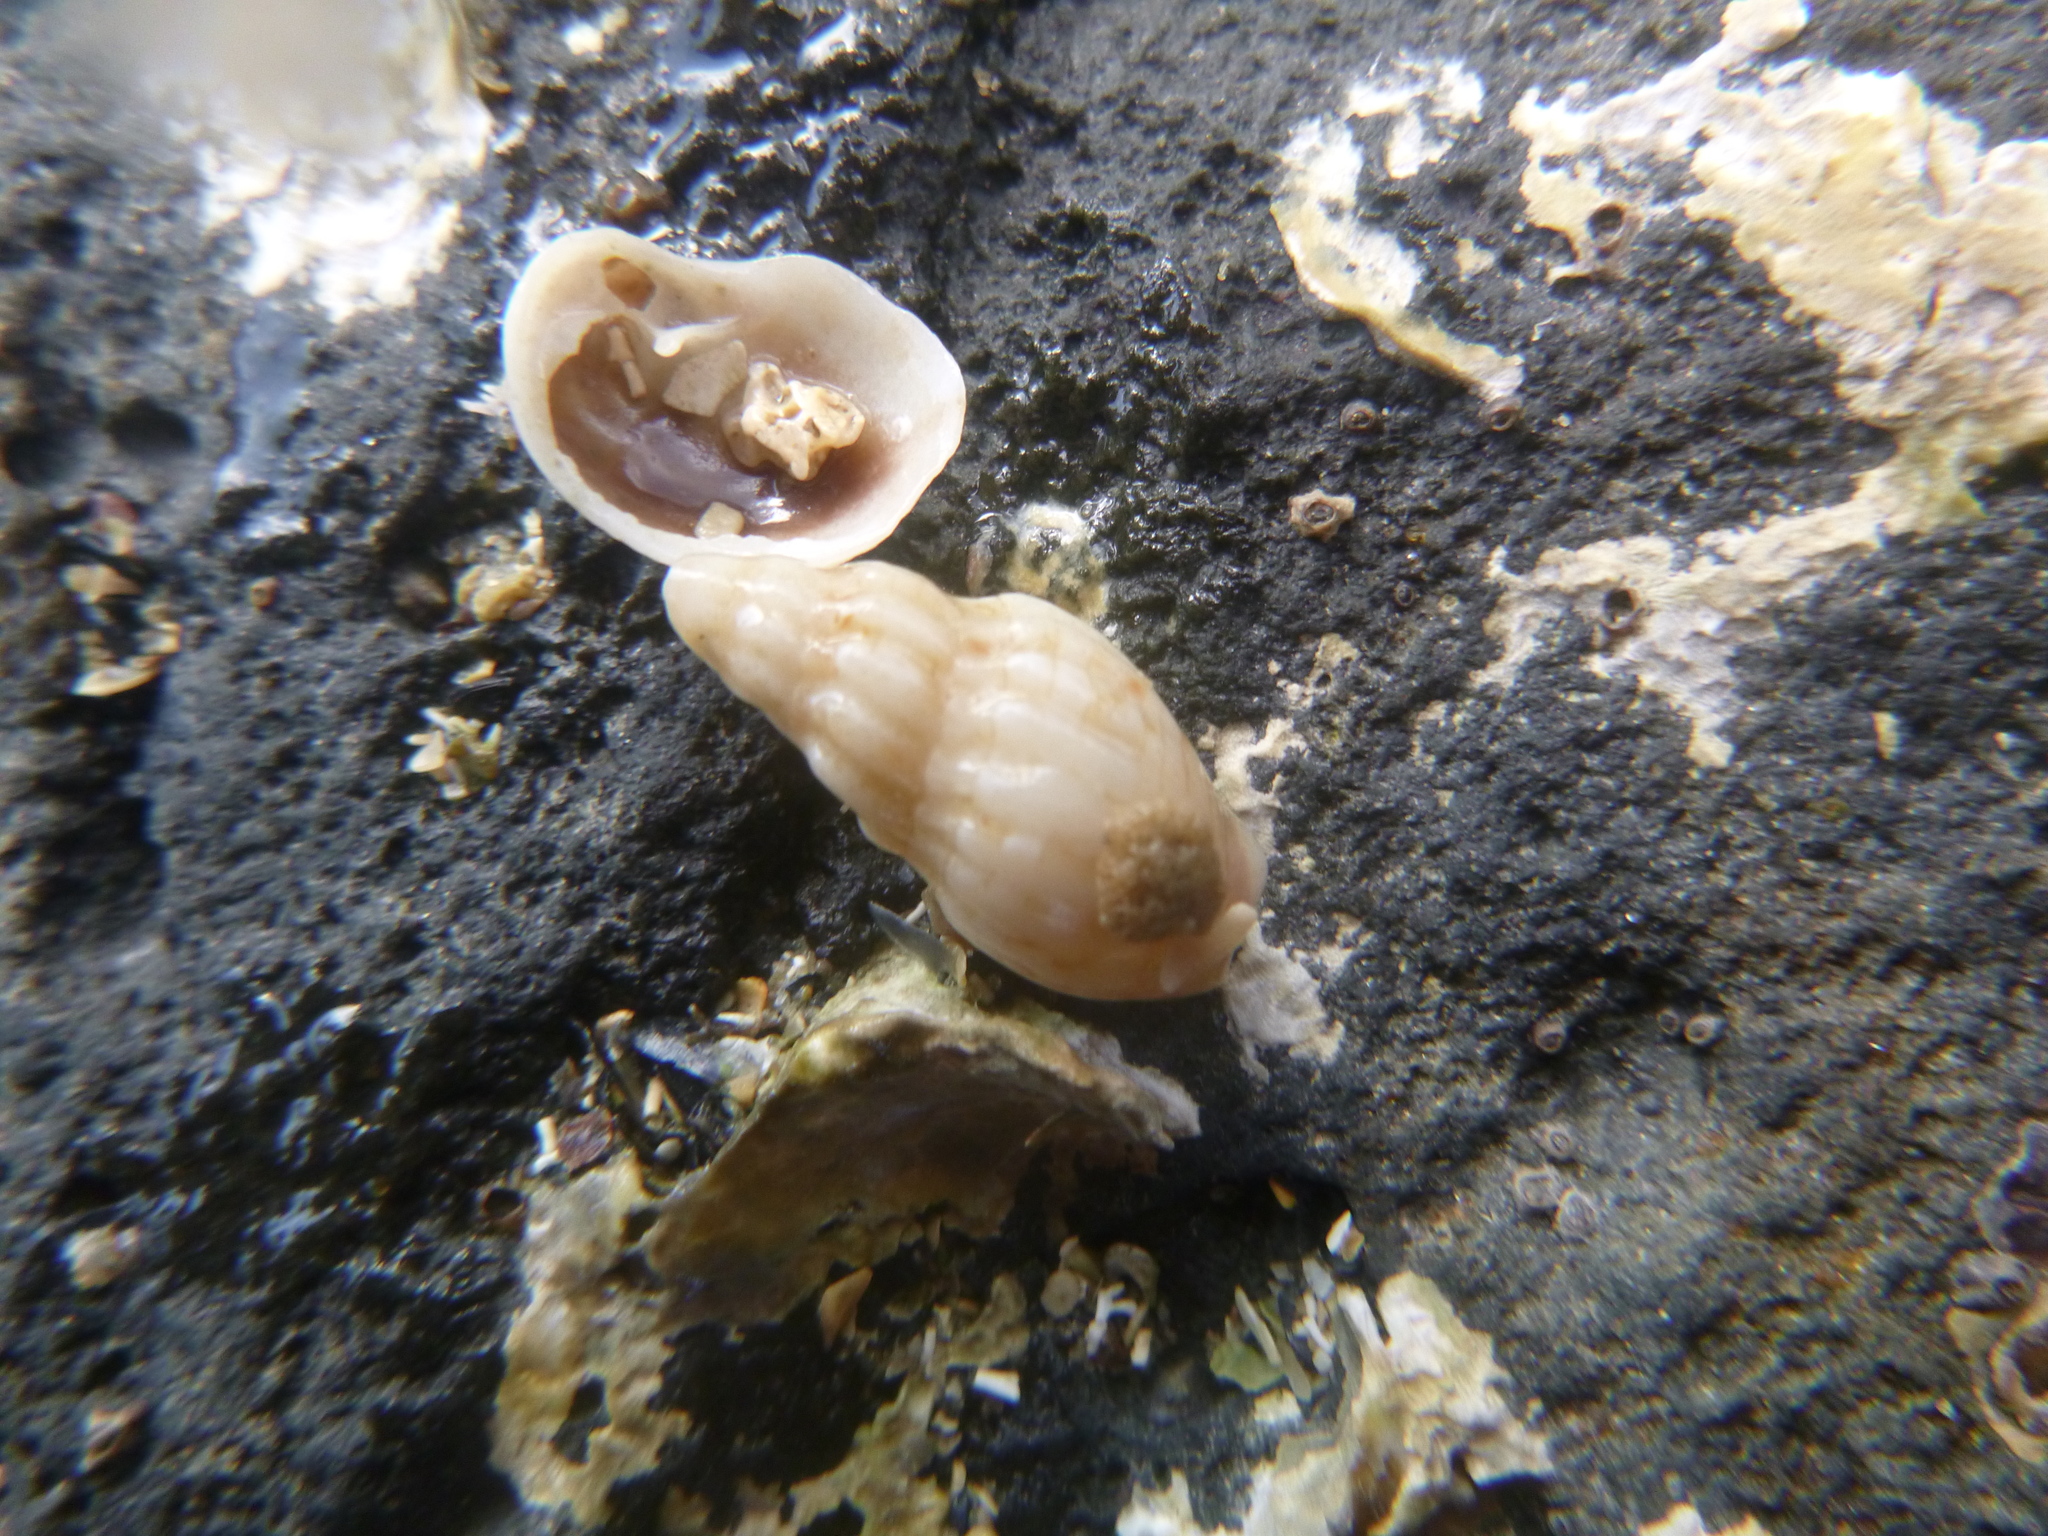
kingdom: Animalia
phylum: Mollusca
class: Gastropoda
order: Neogastropoda
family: Cominellidae
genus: Cominella
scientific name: Cominella quoyana
